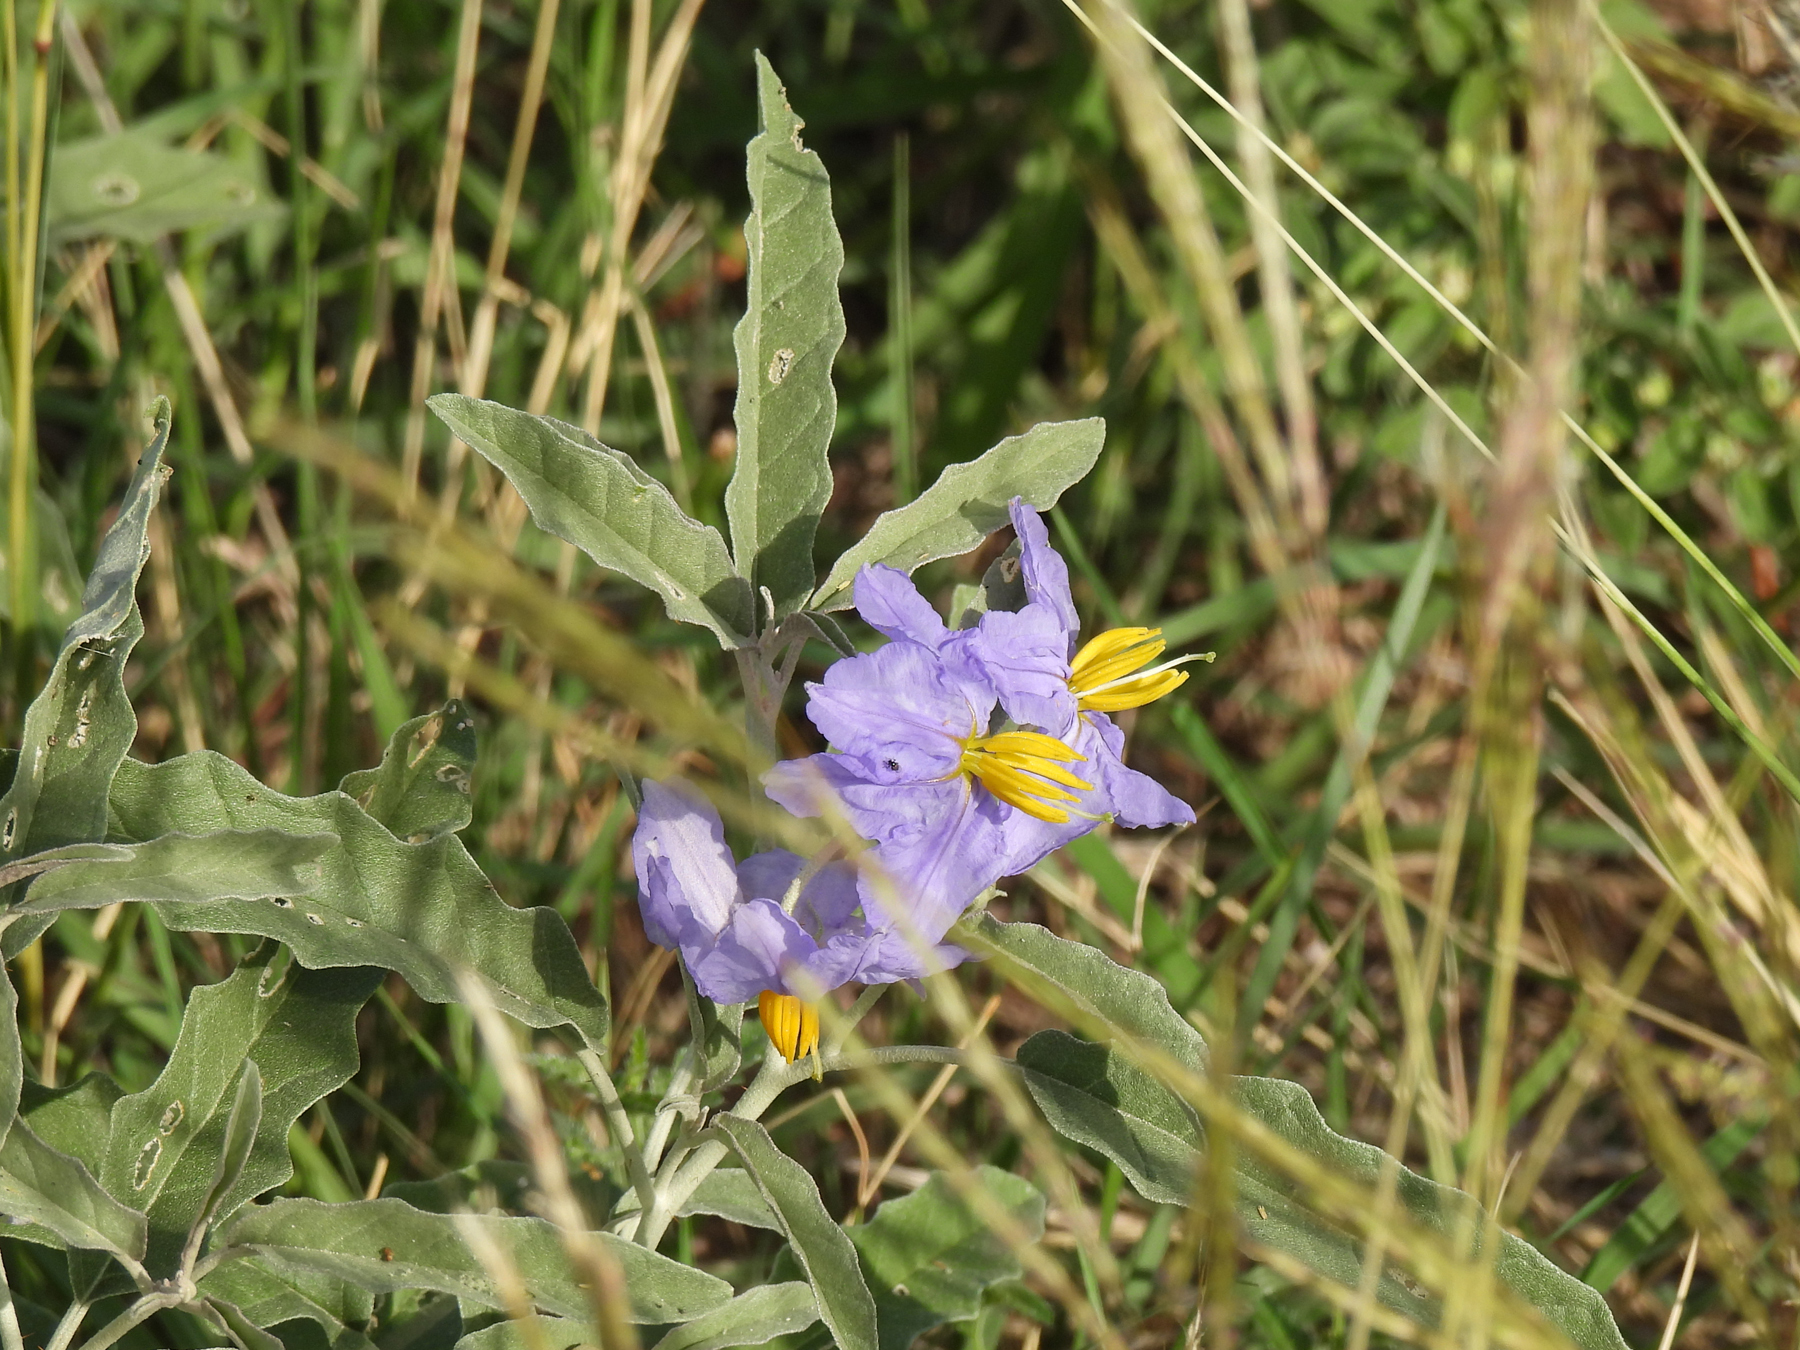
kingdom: Plantae
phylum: Tracheophyta
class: Magnoliopsida
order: Solanales
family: Solanaceae
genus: Solanum
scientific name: Solanum elaeagnifolium
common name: Silverleaf nightshade
